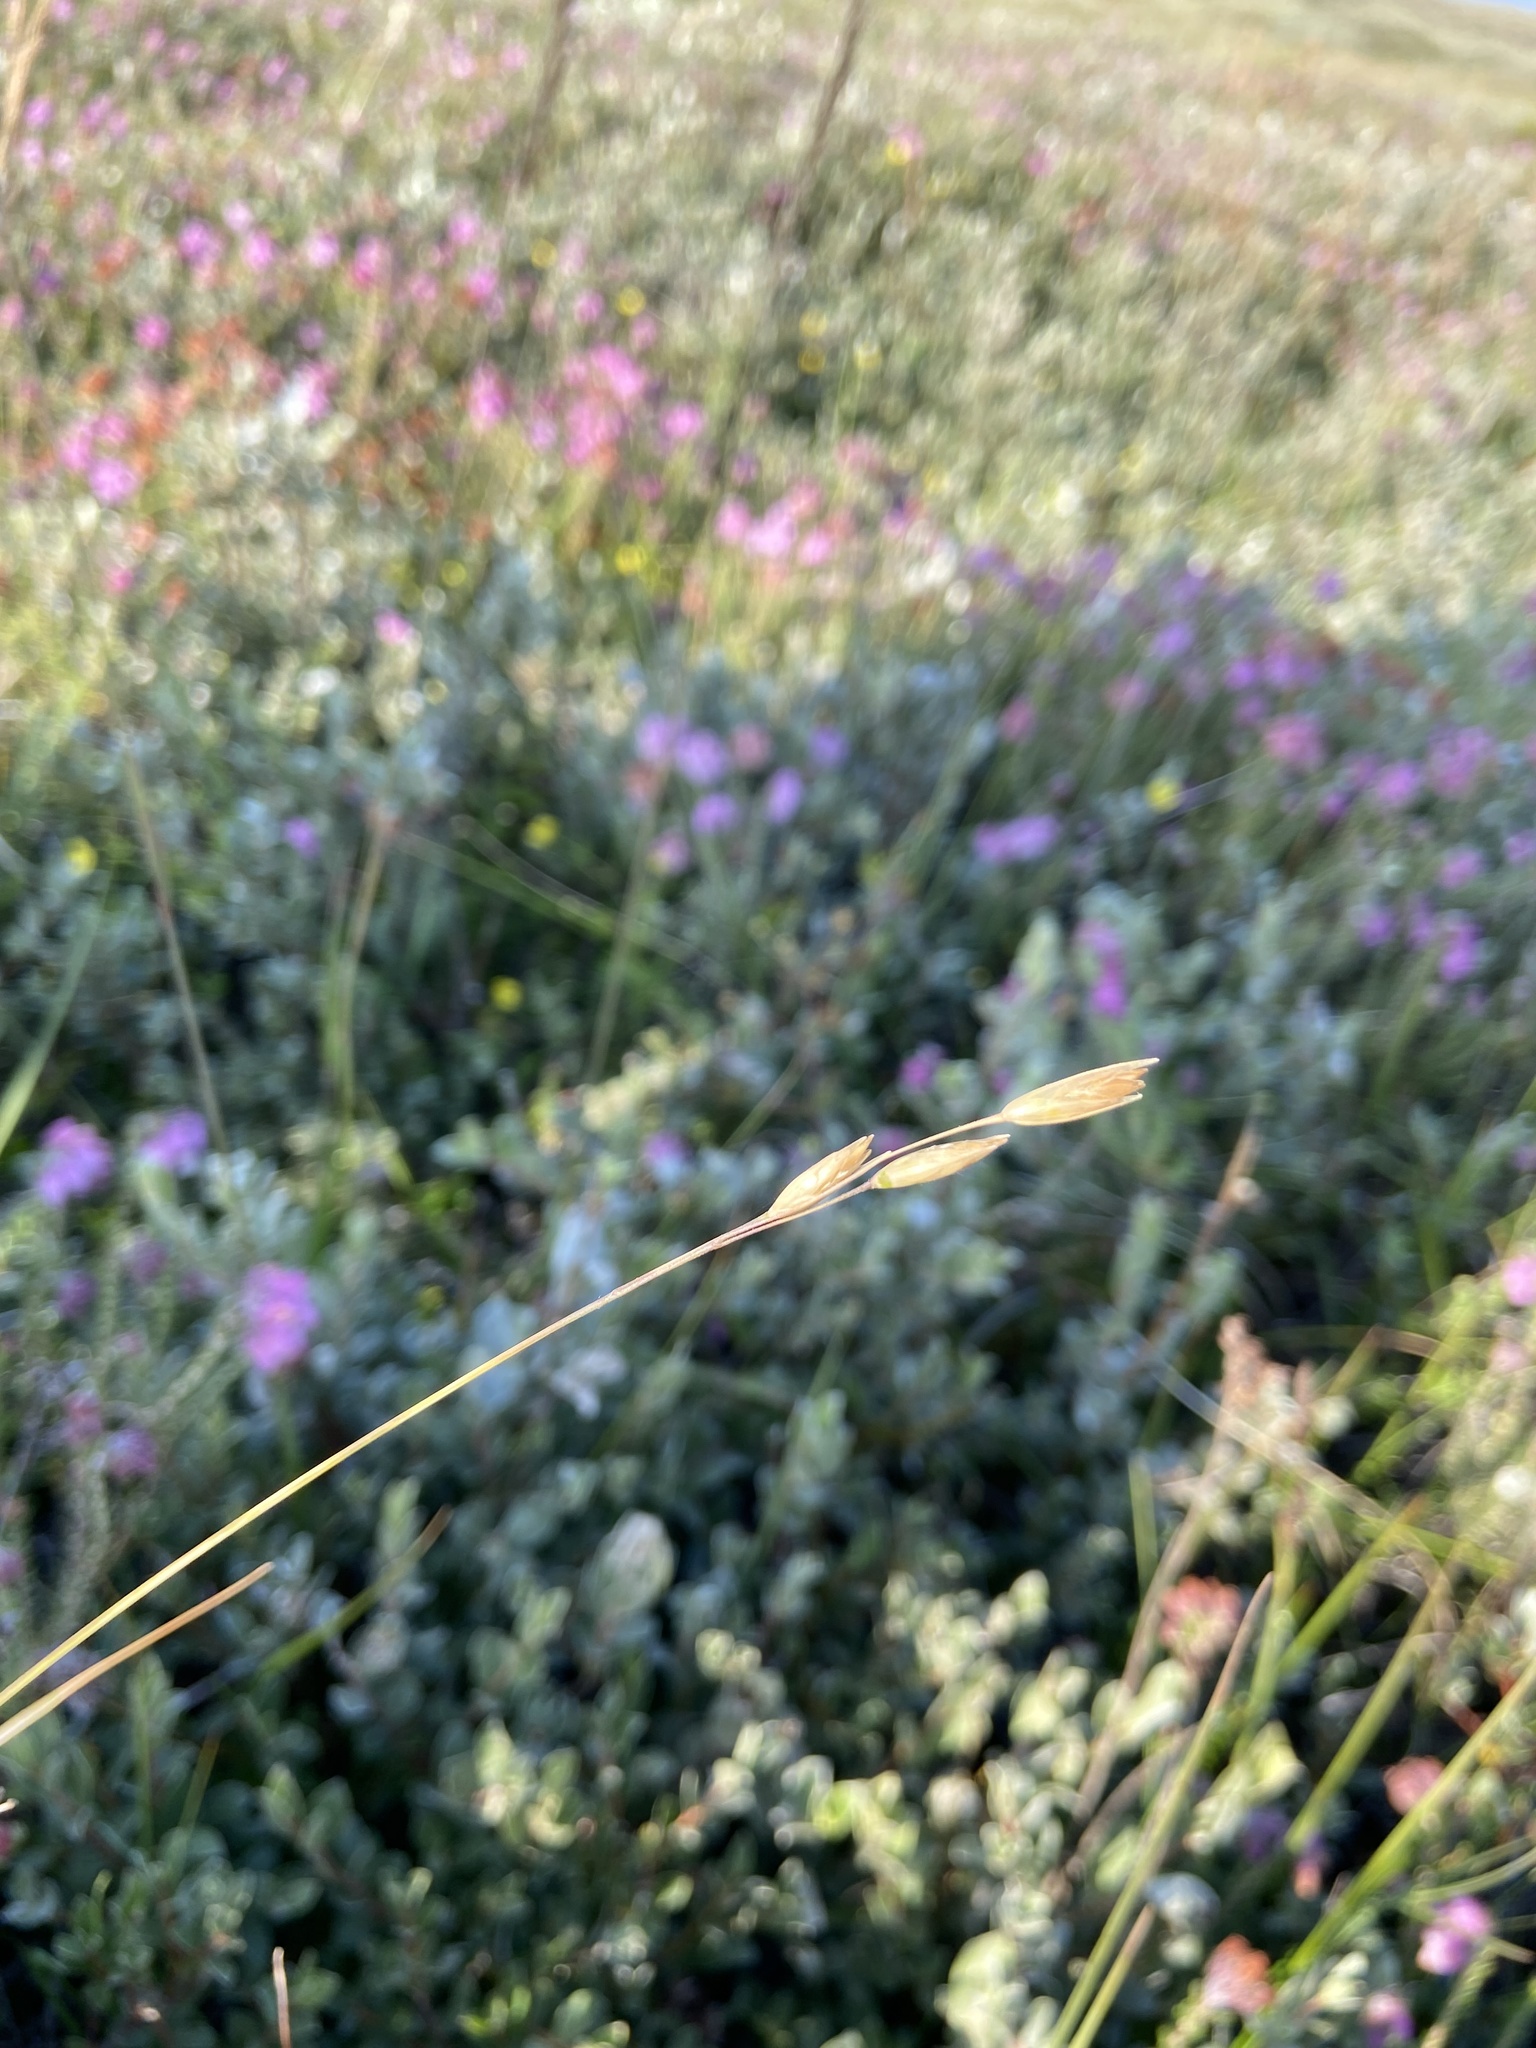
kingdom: Plantae
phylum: Tracheophyta
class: Liliopsida
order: Poales
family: Poaceae
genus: Danthonia
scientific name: Danthonia decumbens
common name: Common heathgrass
